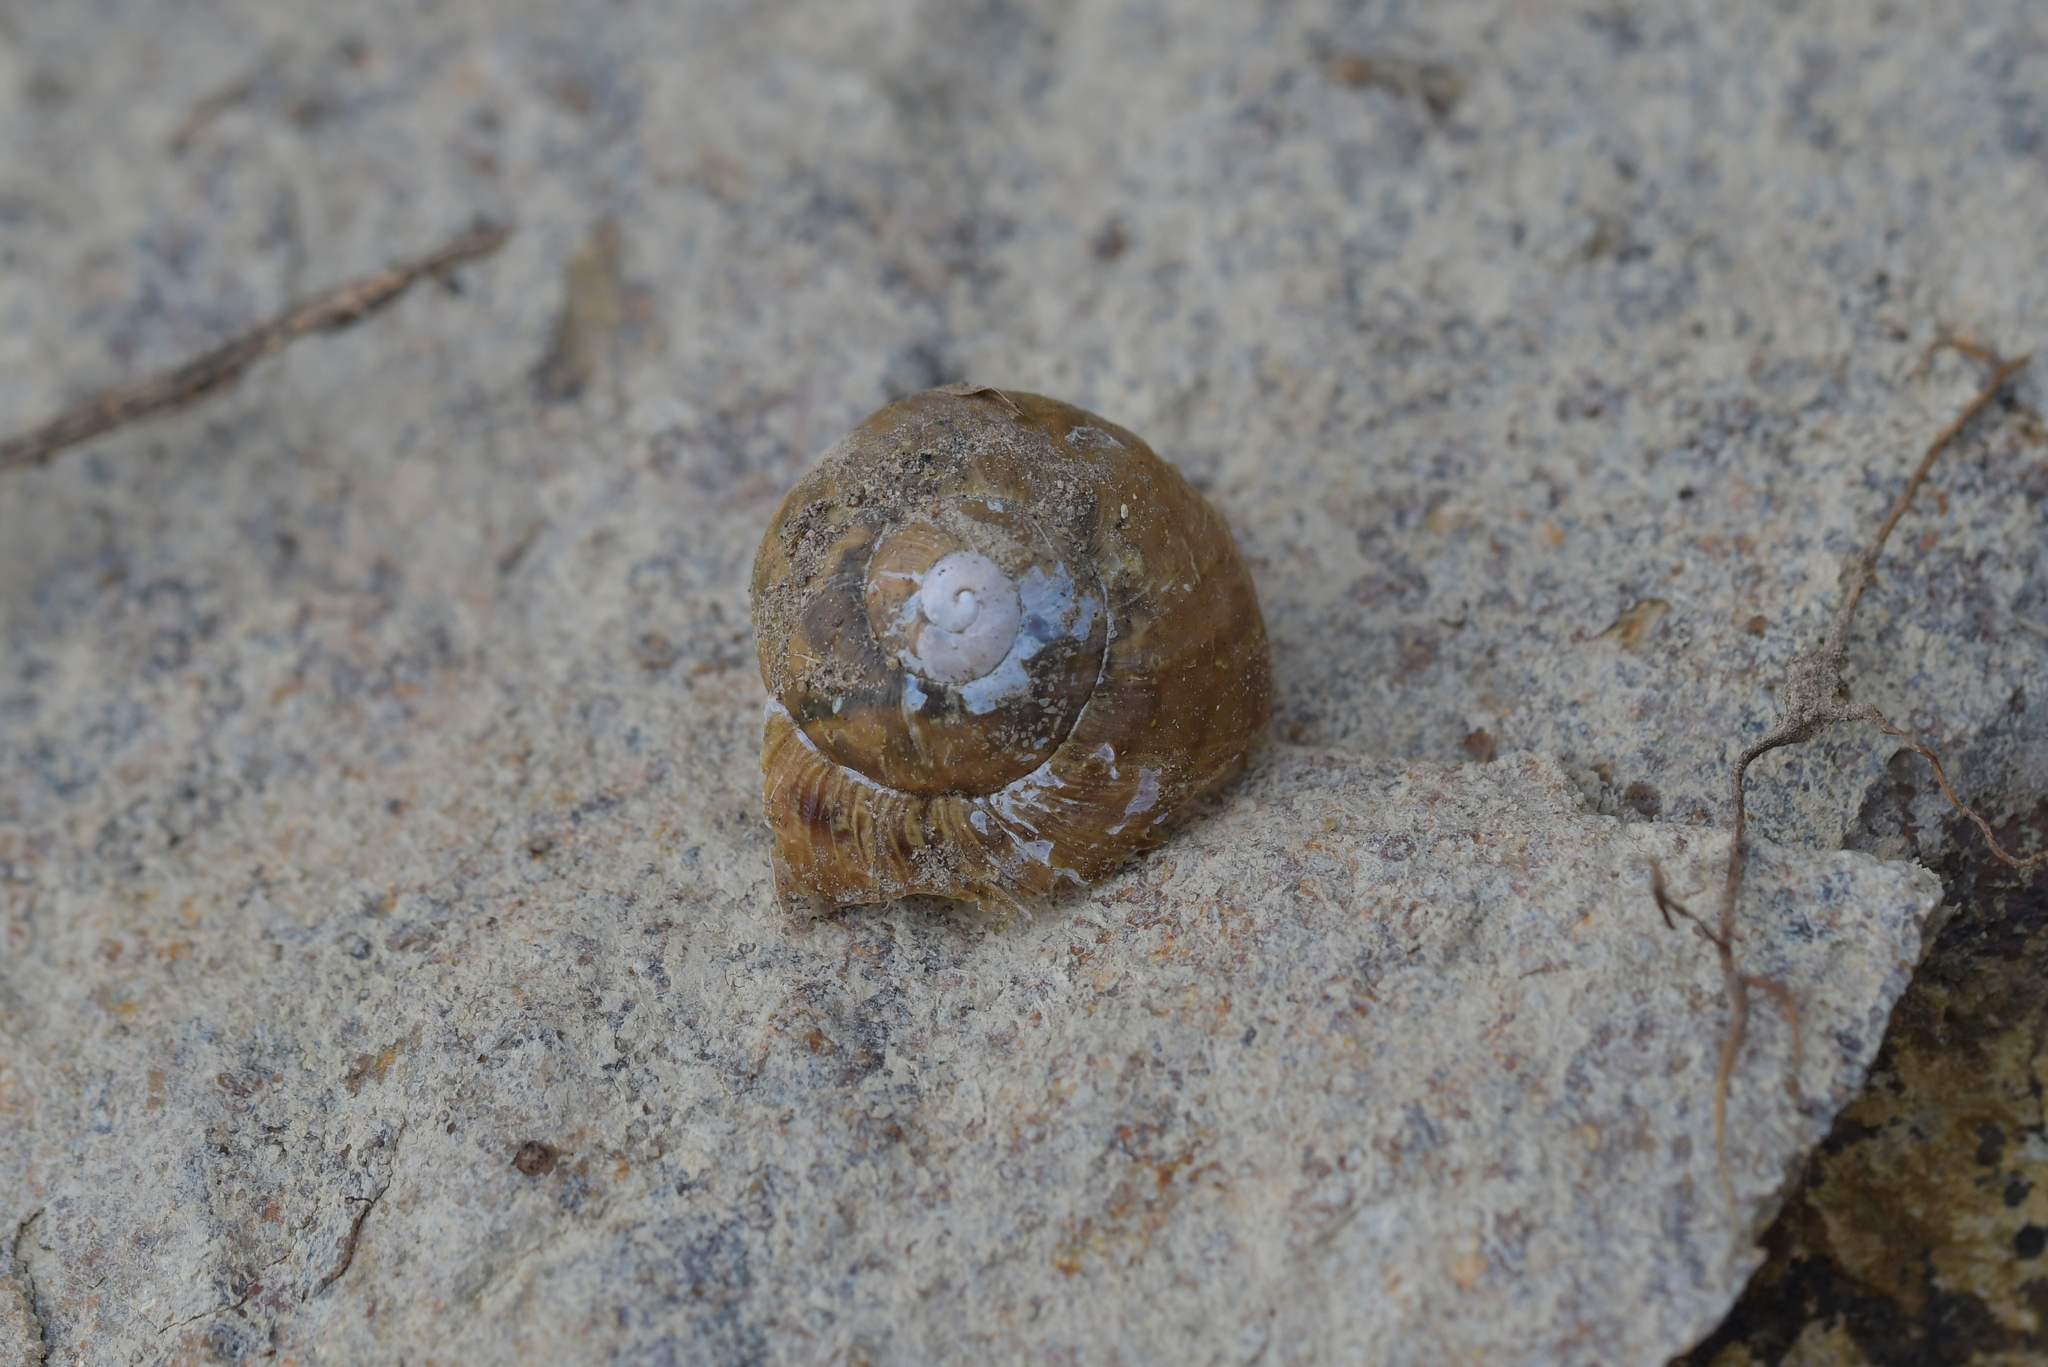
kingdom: Animalia
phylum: Mollusca
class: Gastropoda
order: Stylommatophora
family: Helicidae
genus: Cornu
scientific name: Cornu aspersum
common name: Brown garden snail
